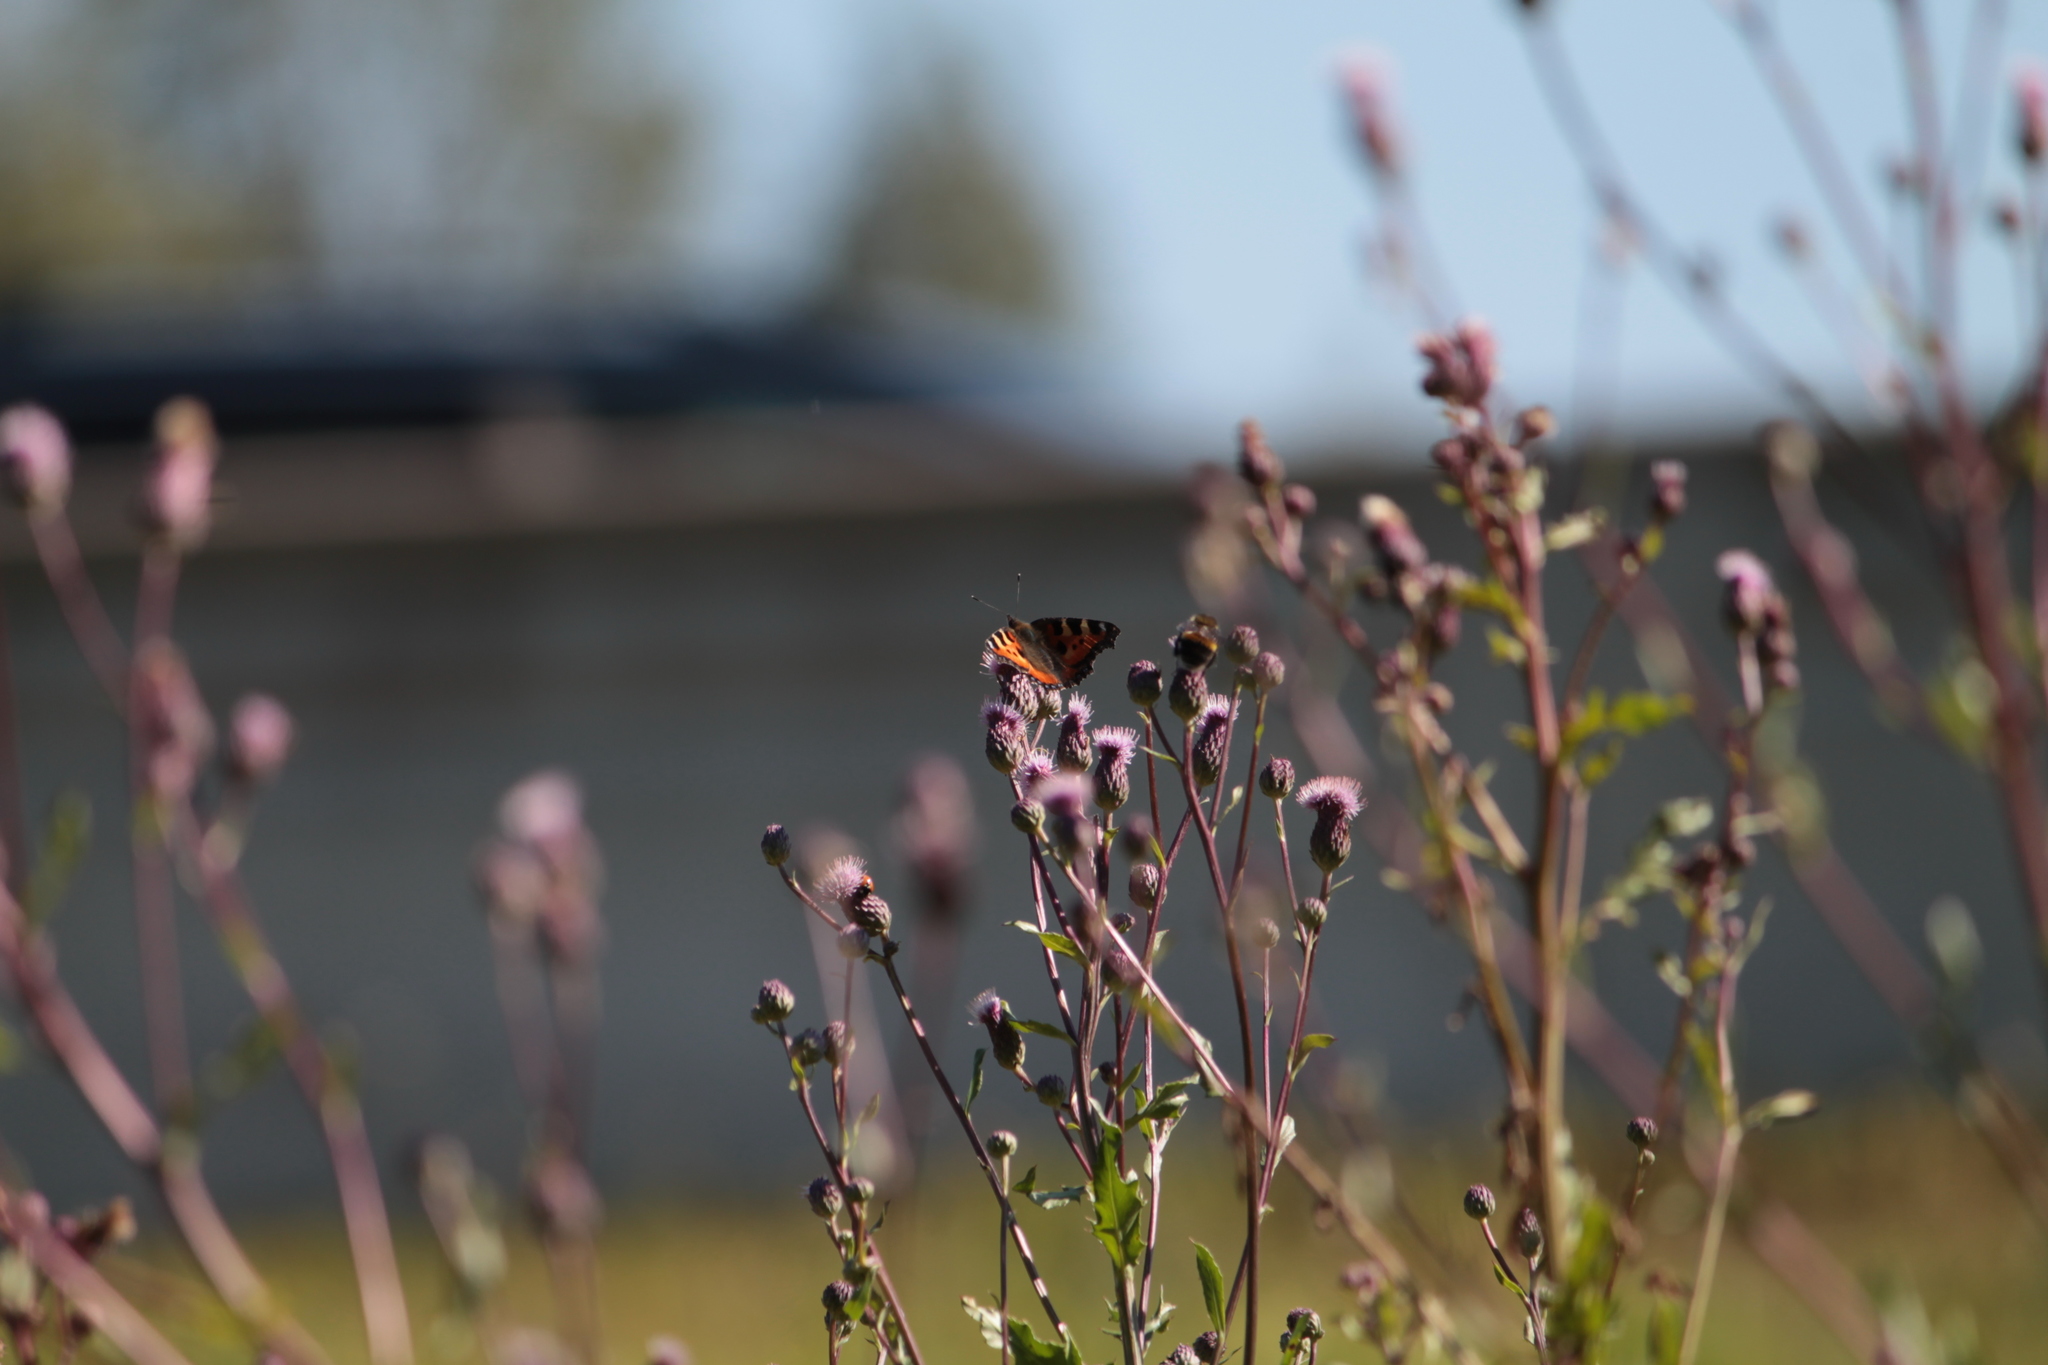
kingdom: Animalia
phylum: Arthropoda
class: Insecta
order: Lepidoptera
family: Nymphalidae
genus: Aglais
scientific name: Aglais urticae
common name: Small tortoiseshell
